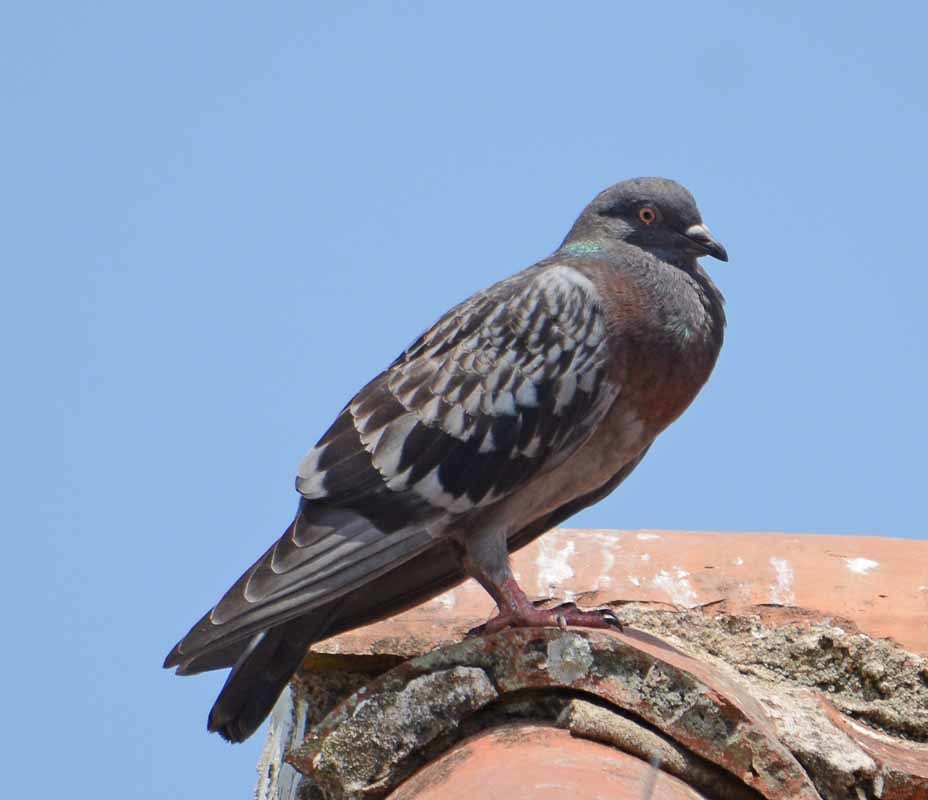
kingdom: Animalia
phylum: Chordata
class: Aves
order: Columbiformes
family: Columbidae
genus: Columba
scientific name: Columba livia
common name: Rock pigeon
